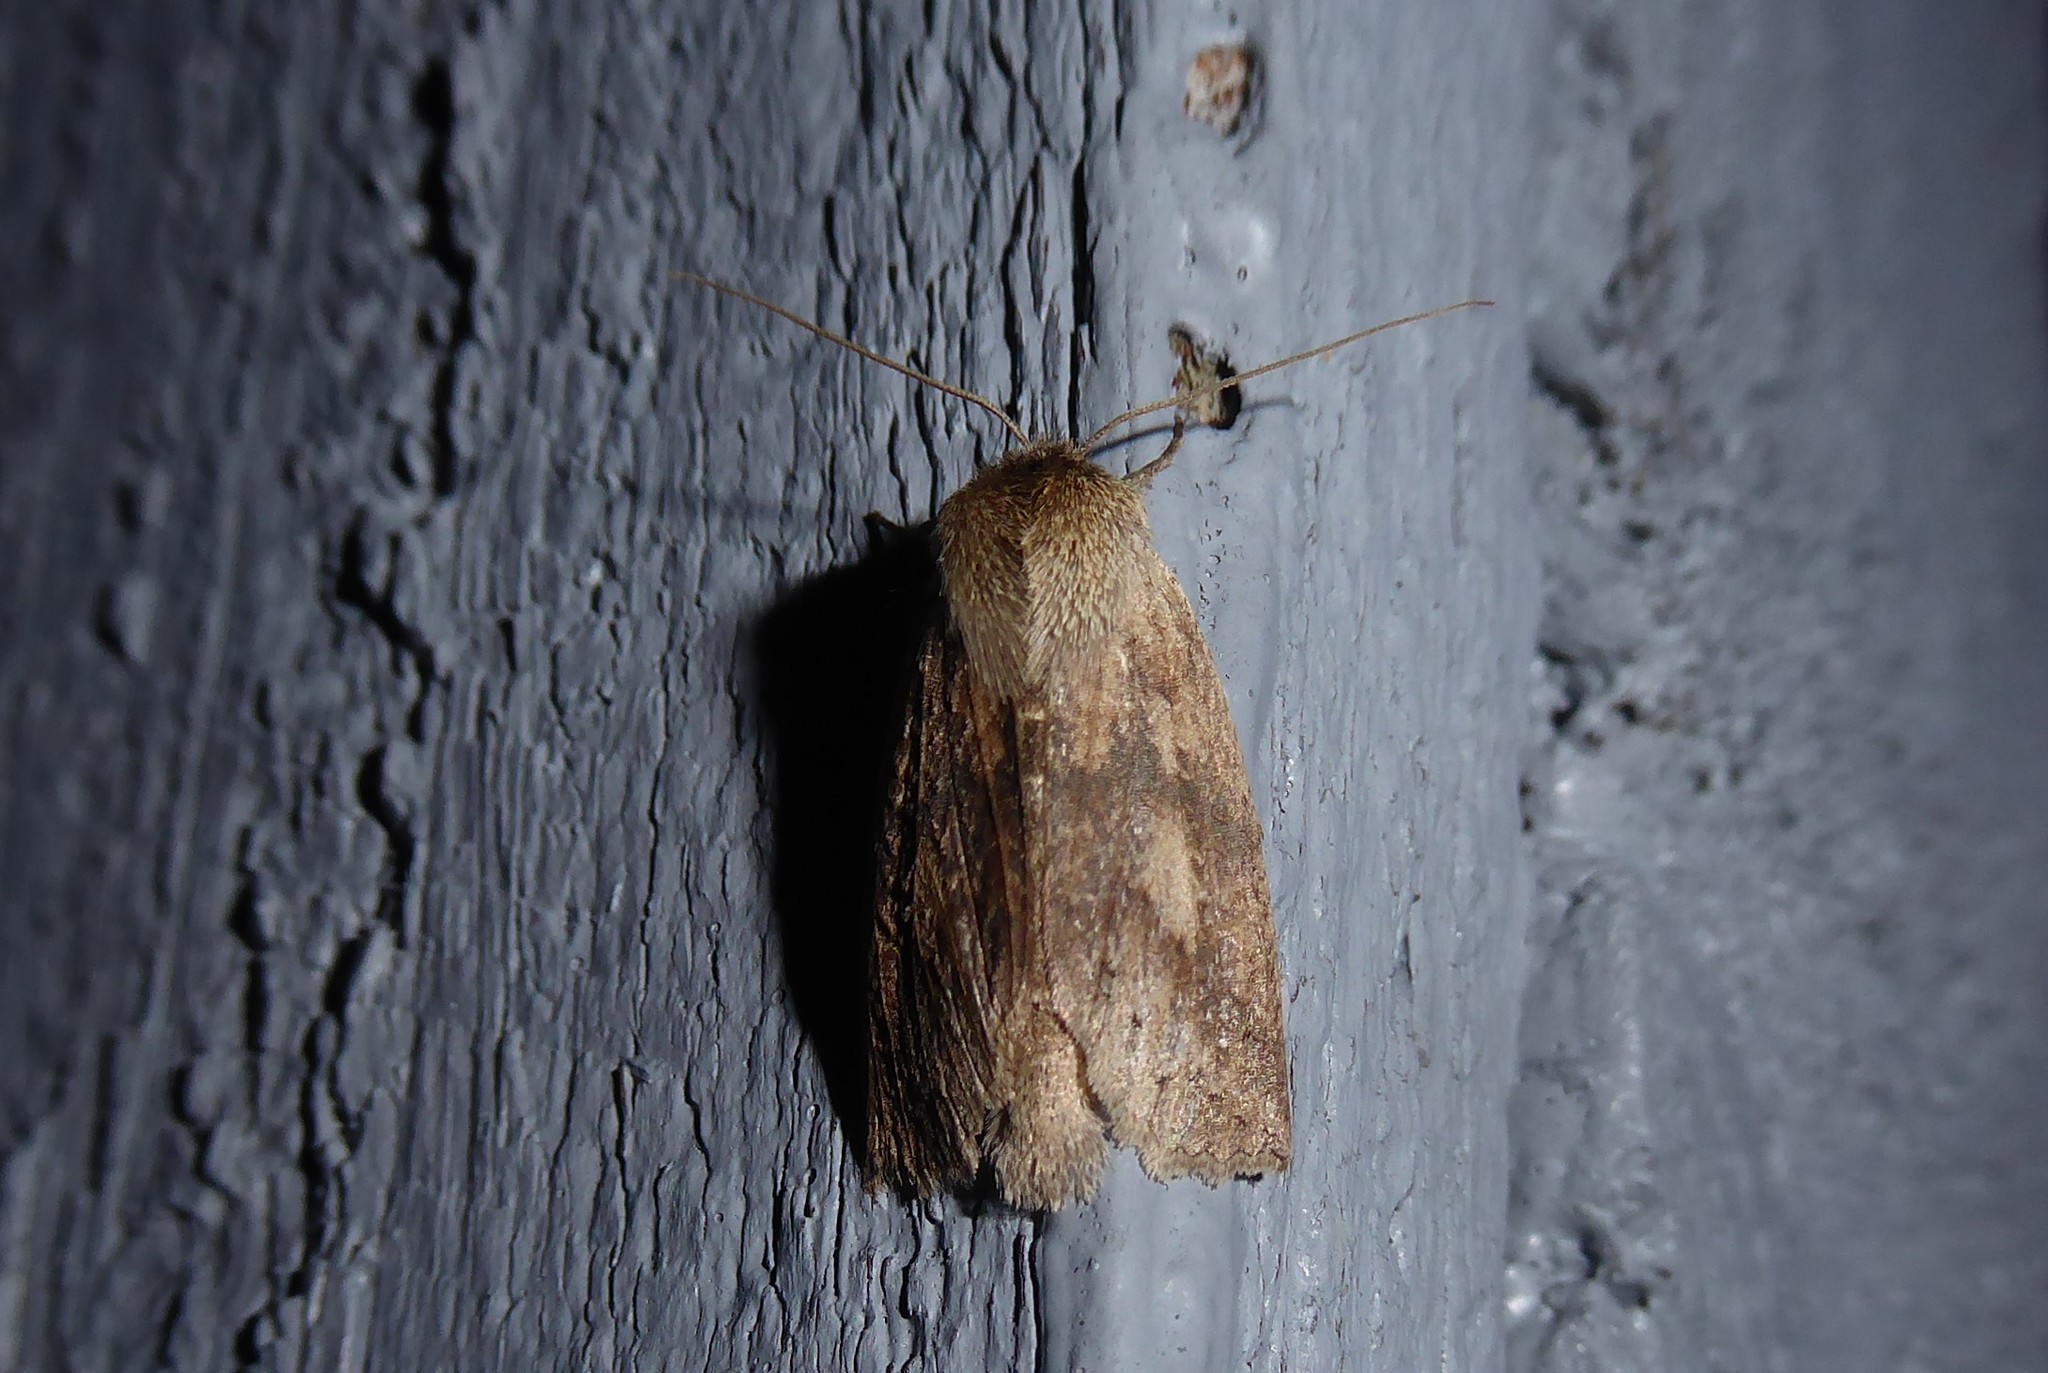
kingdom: Animalia
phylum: Arthropoda
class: Insecta
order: Lepidoptera
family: Geometridae
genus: Declana
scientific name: Declana leptomera
